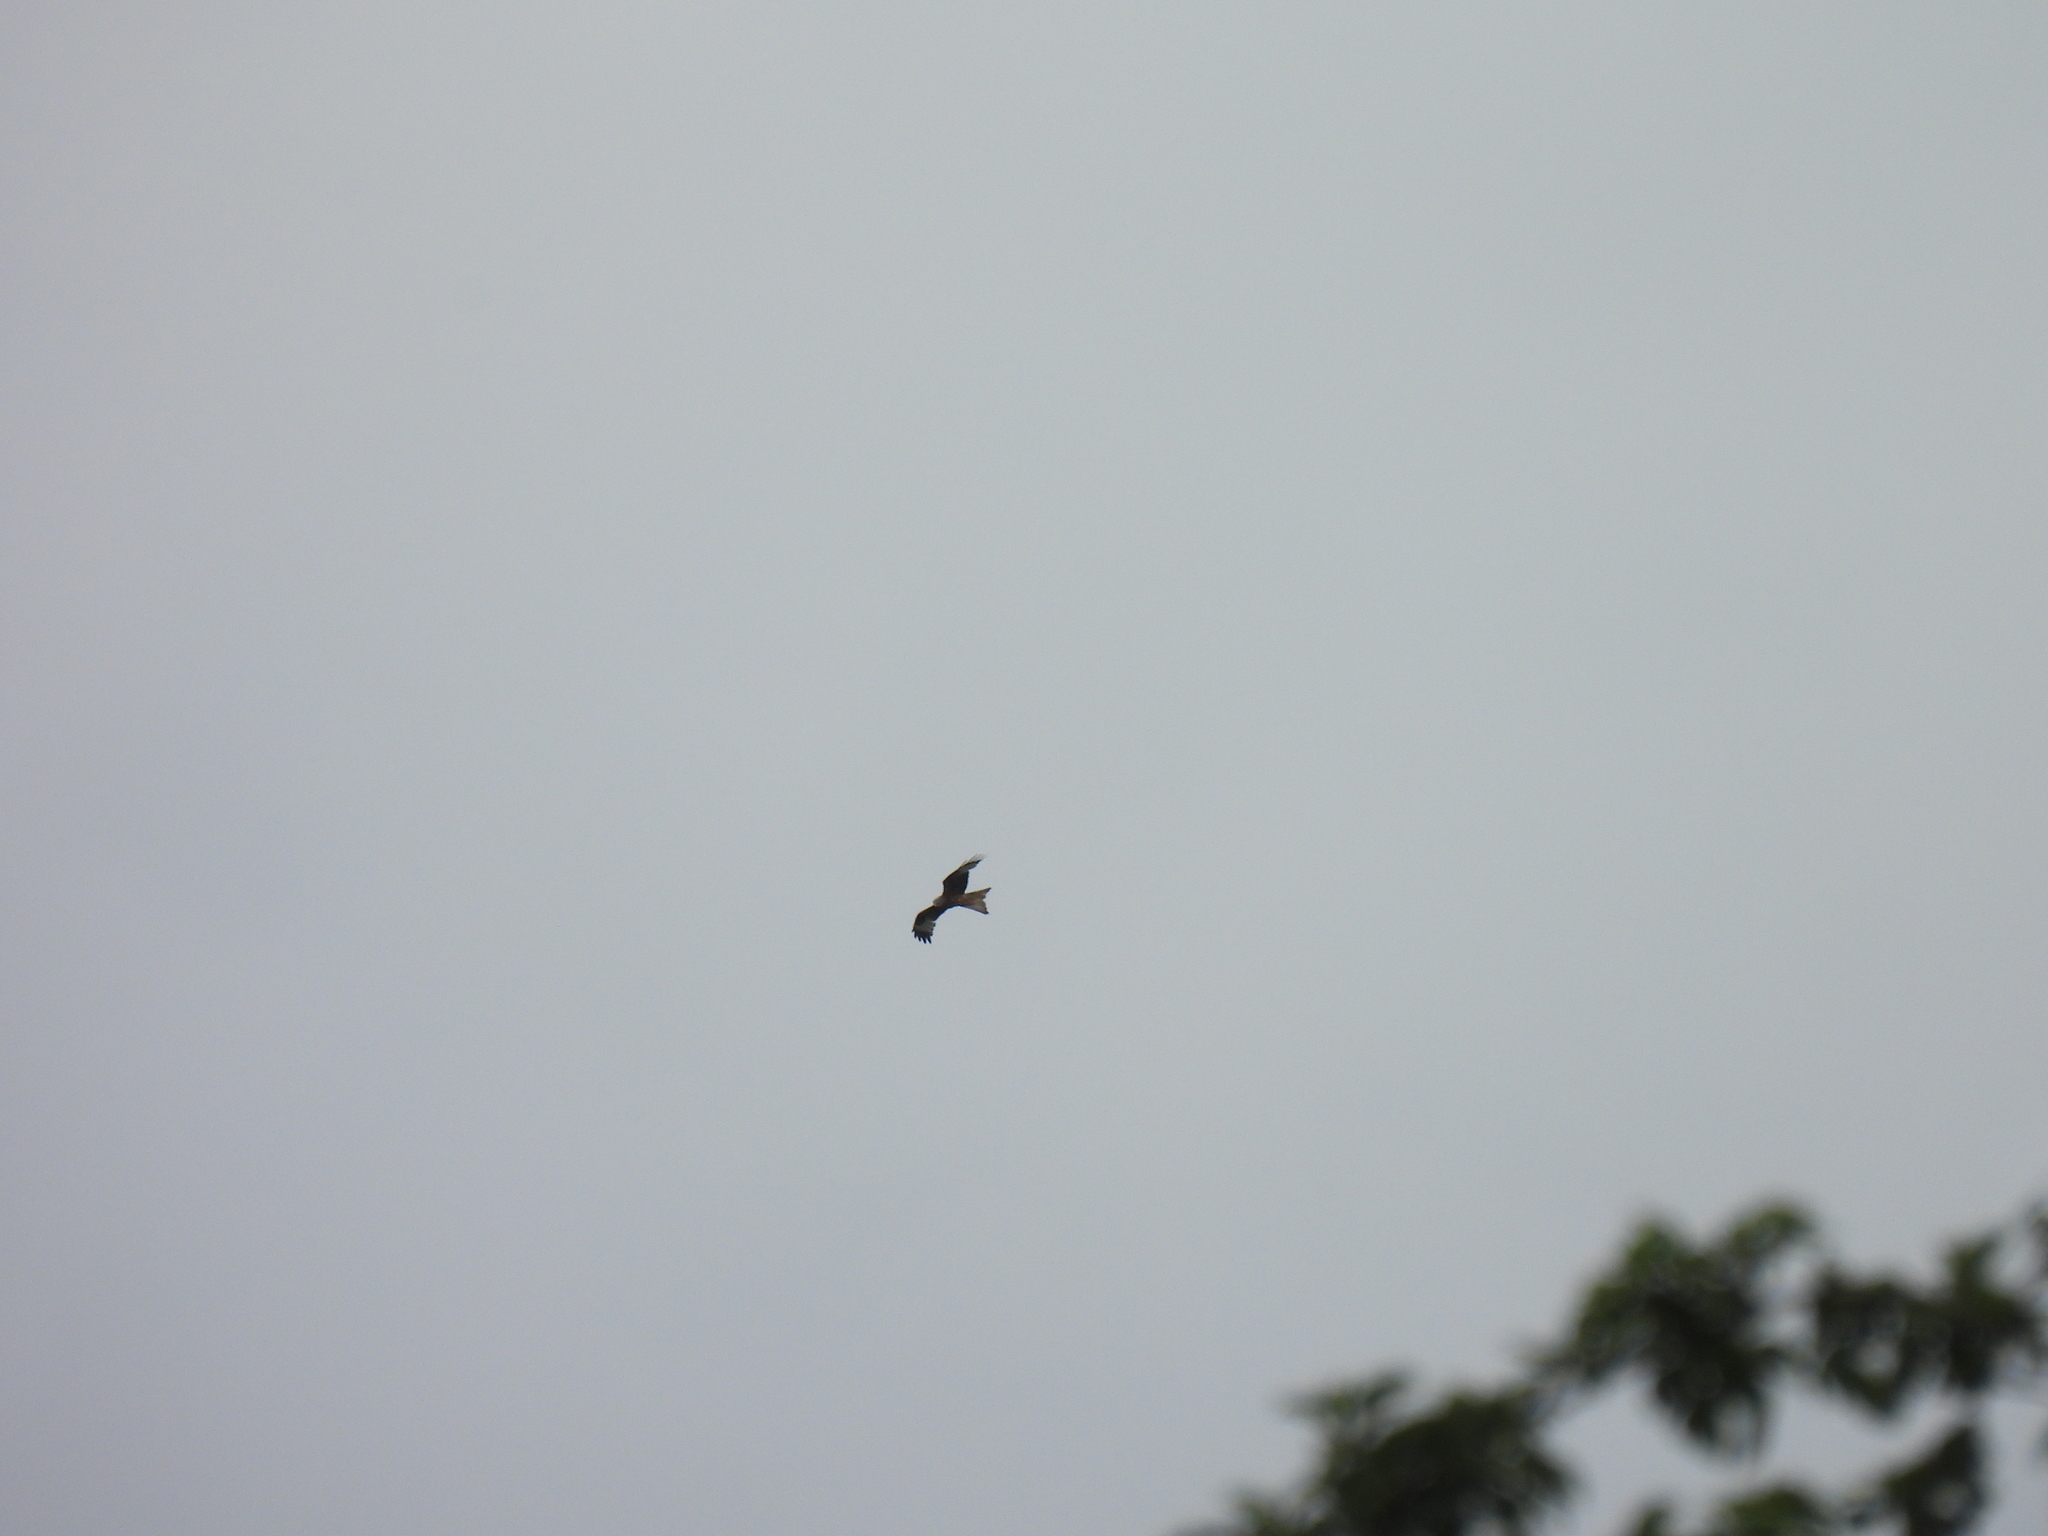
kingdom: Animalia
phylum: Chordata
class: Aves
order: Accipitriformes
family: Accipitridae
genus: Milvus
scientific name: Milvus milvus
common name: Red kite
